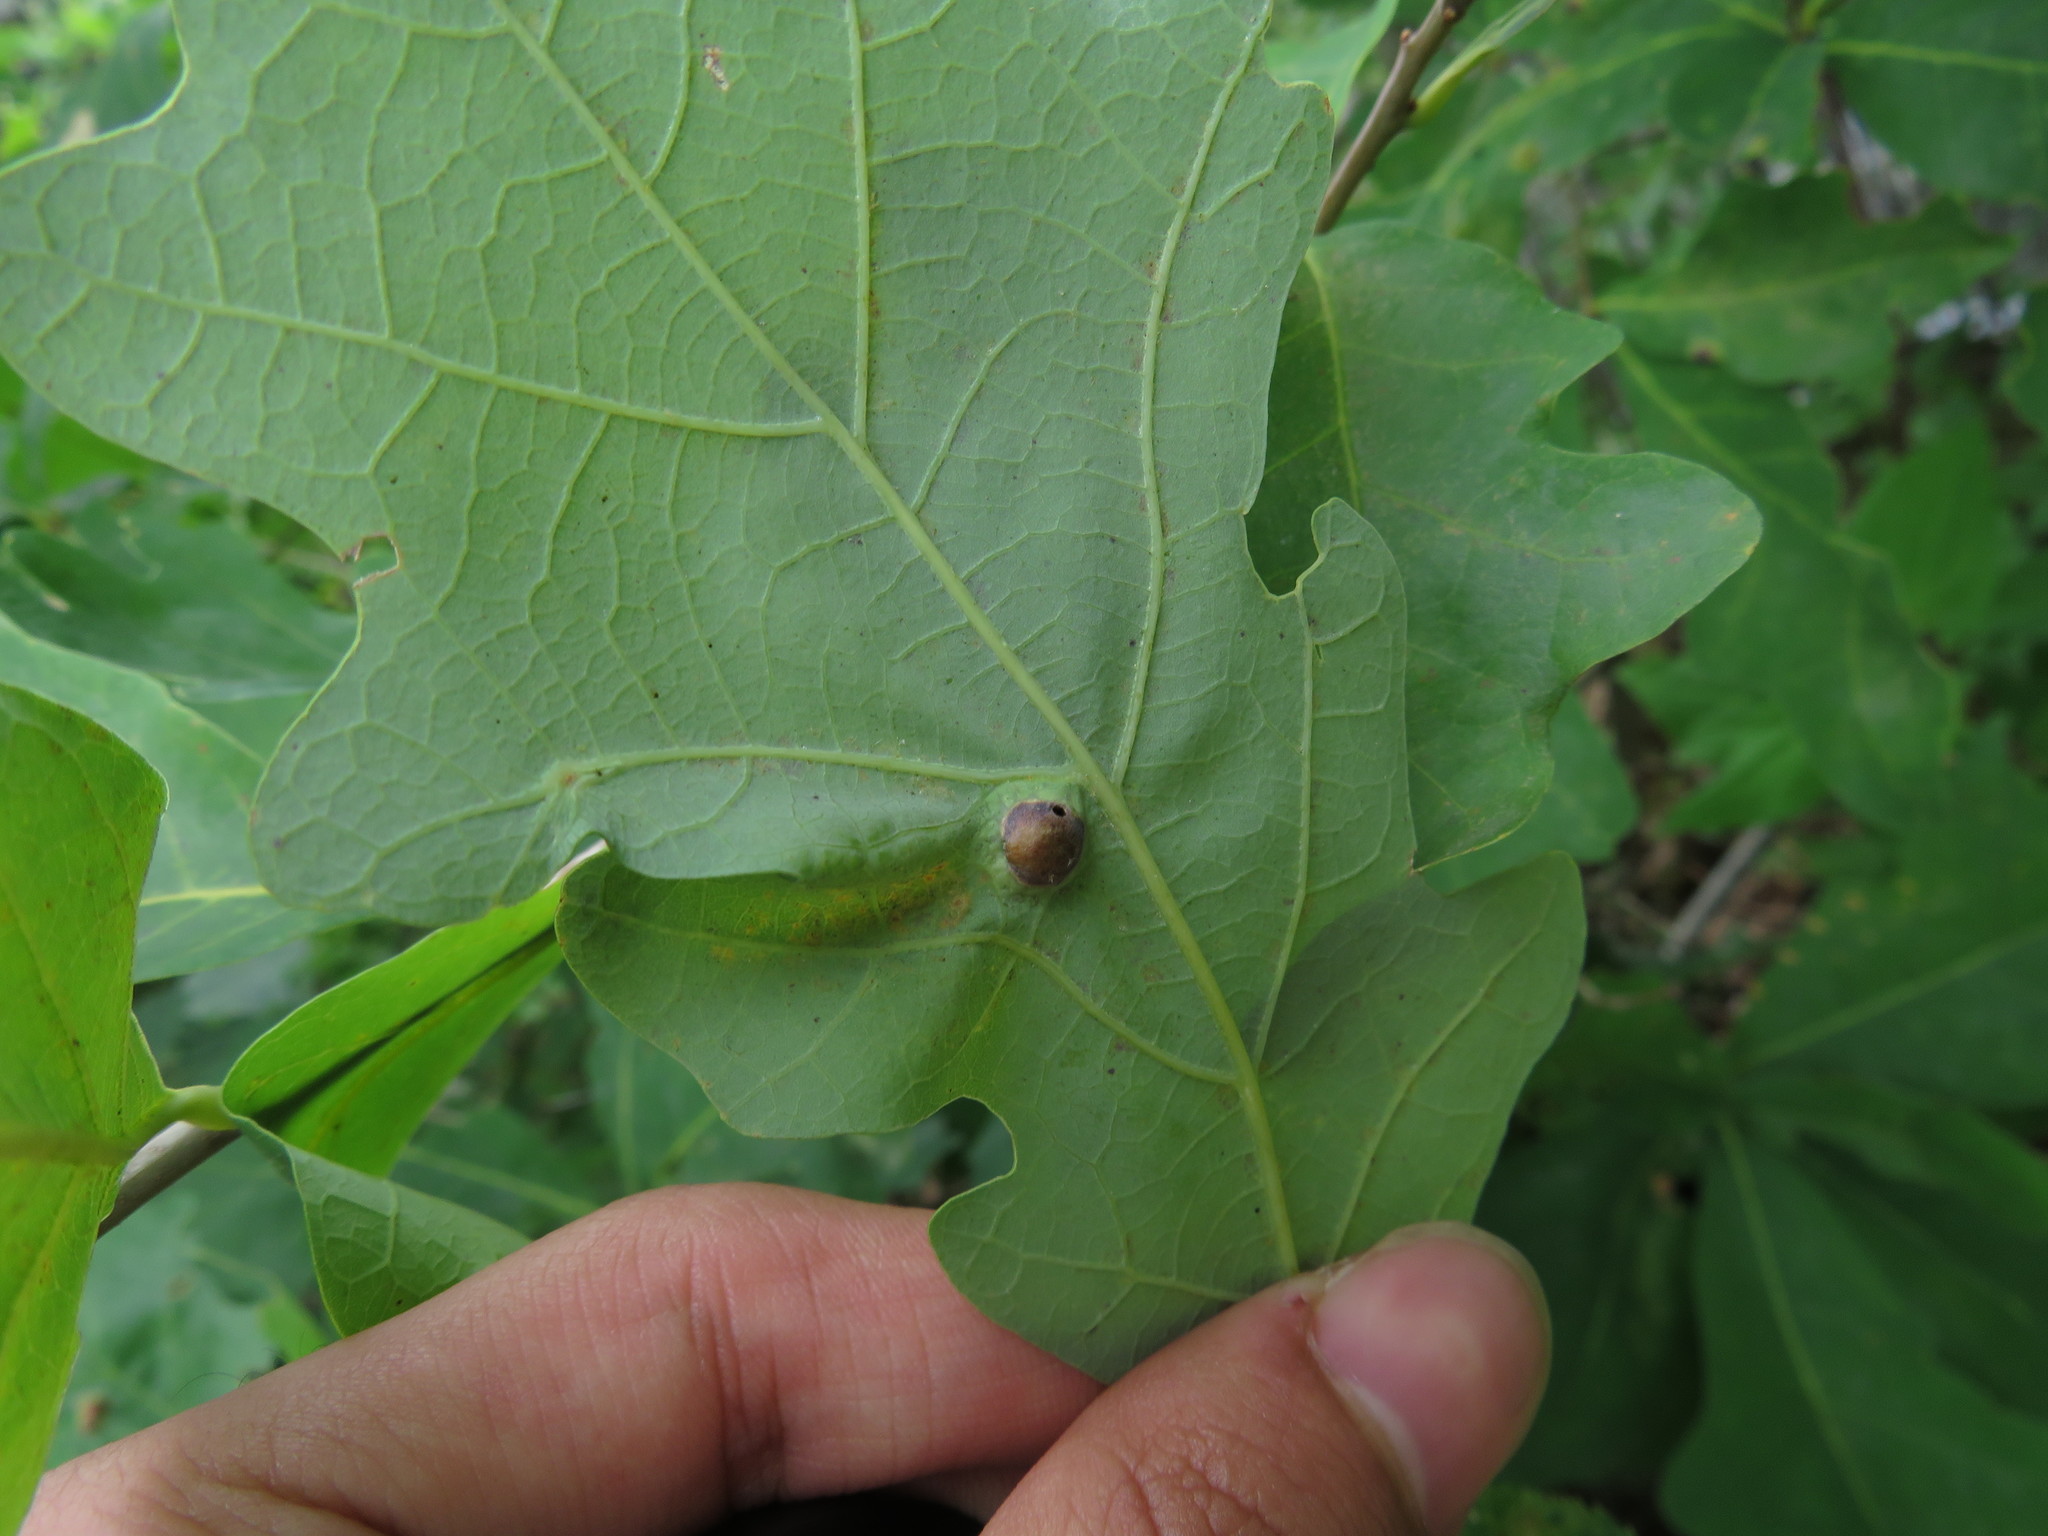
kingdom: Animalia
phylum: Arthropoda
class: Insecta
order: Hymenoptera
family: Cynipidae
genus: Callirhytis
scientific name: Callirhytis
